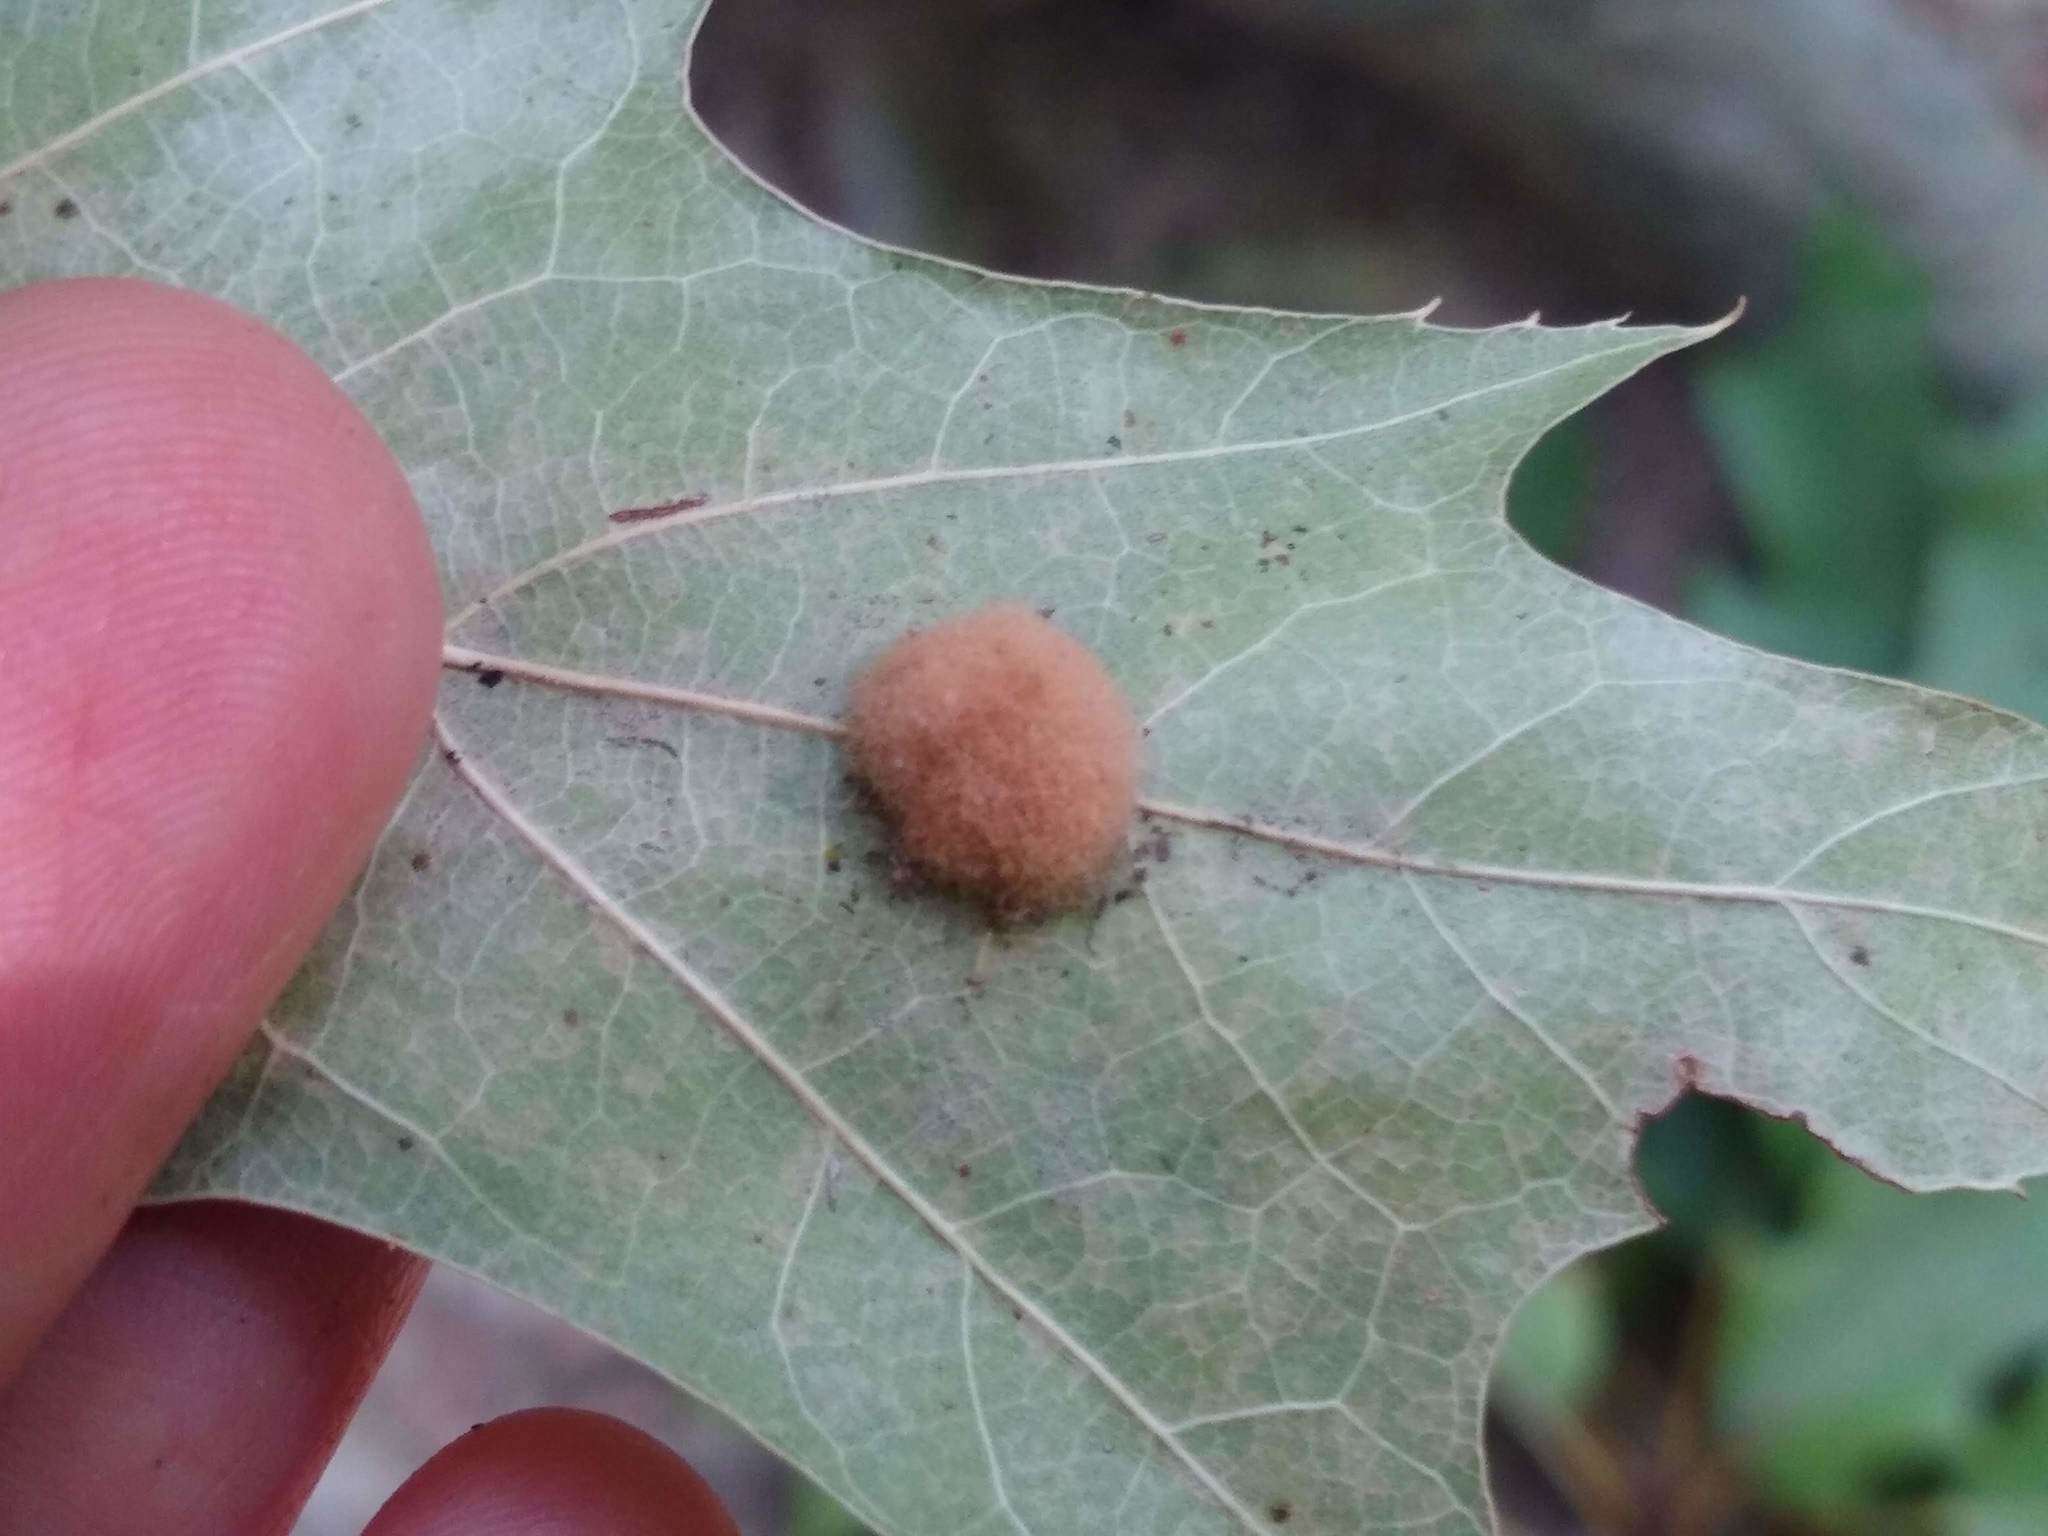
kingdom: Animalia
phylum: Arthropoda
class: Insecta
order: Hymenoptera
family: Cynipidae
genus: Callirhytis
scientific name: Callirhytis
